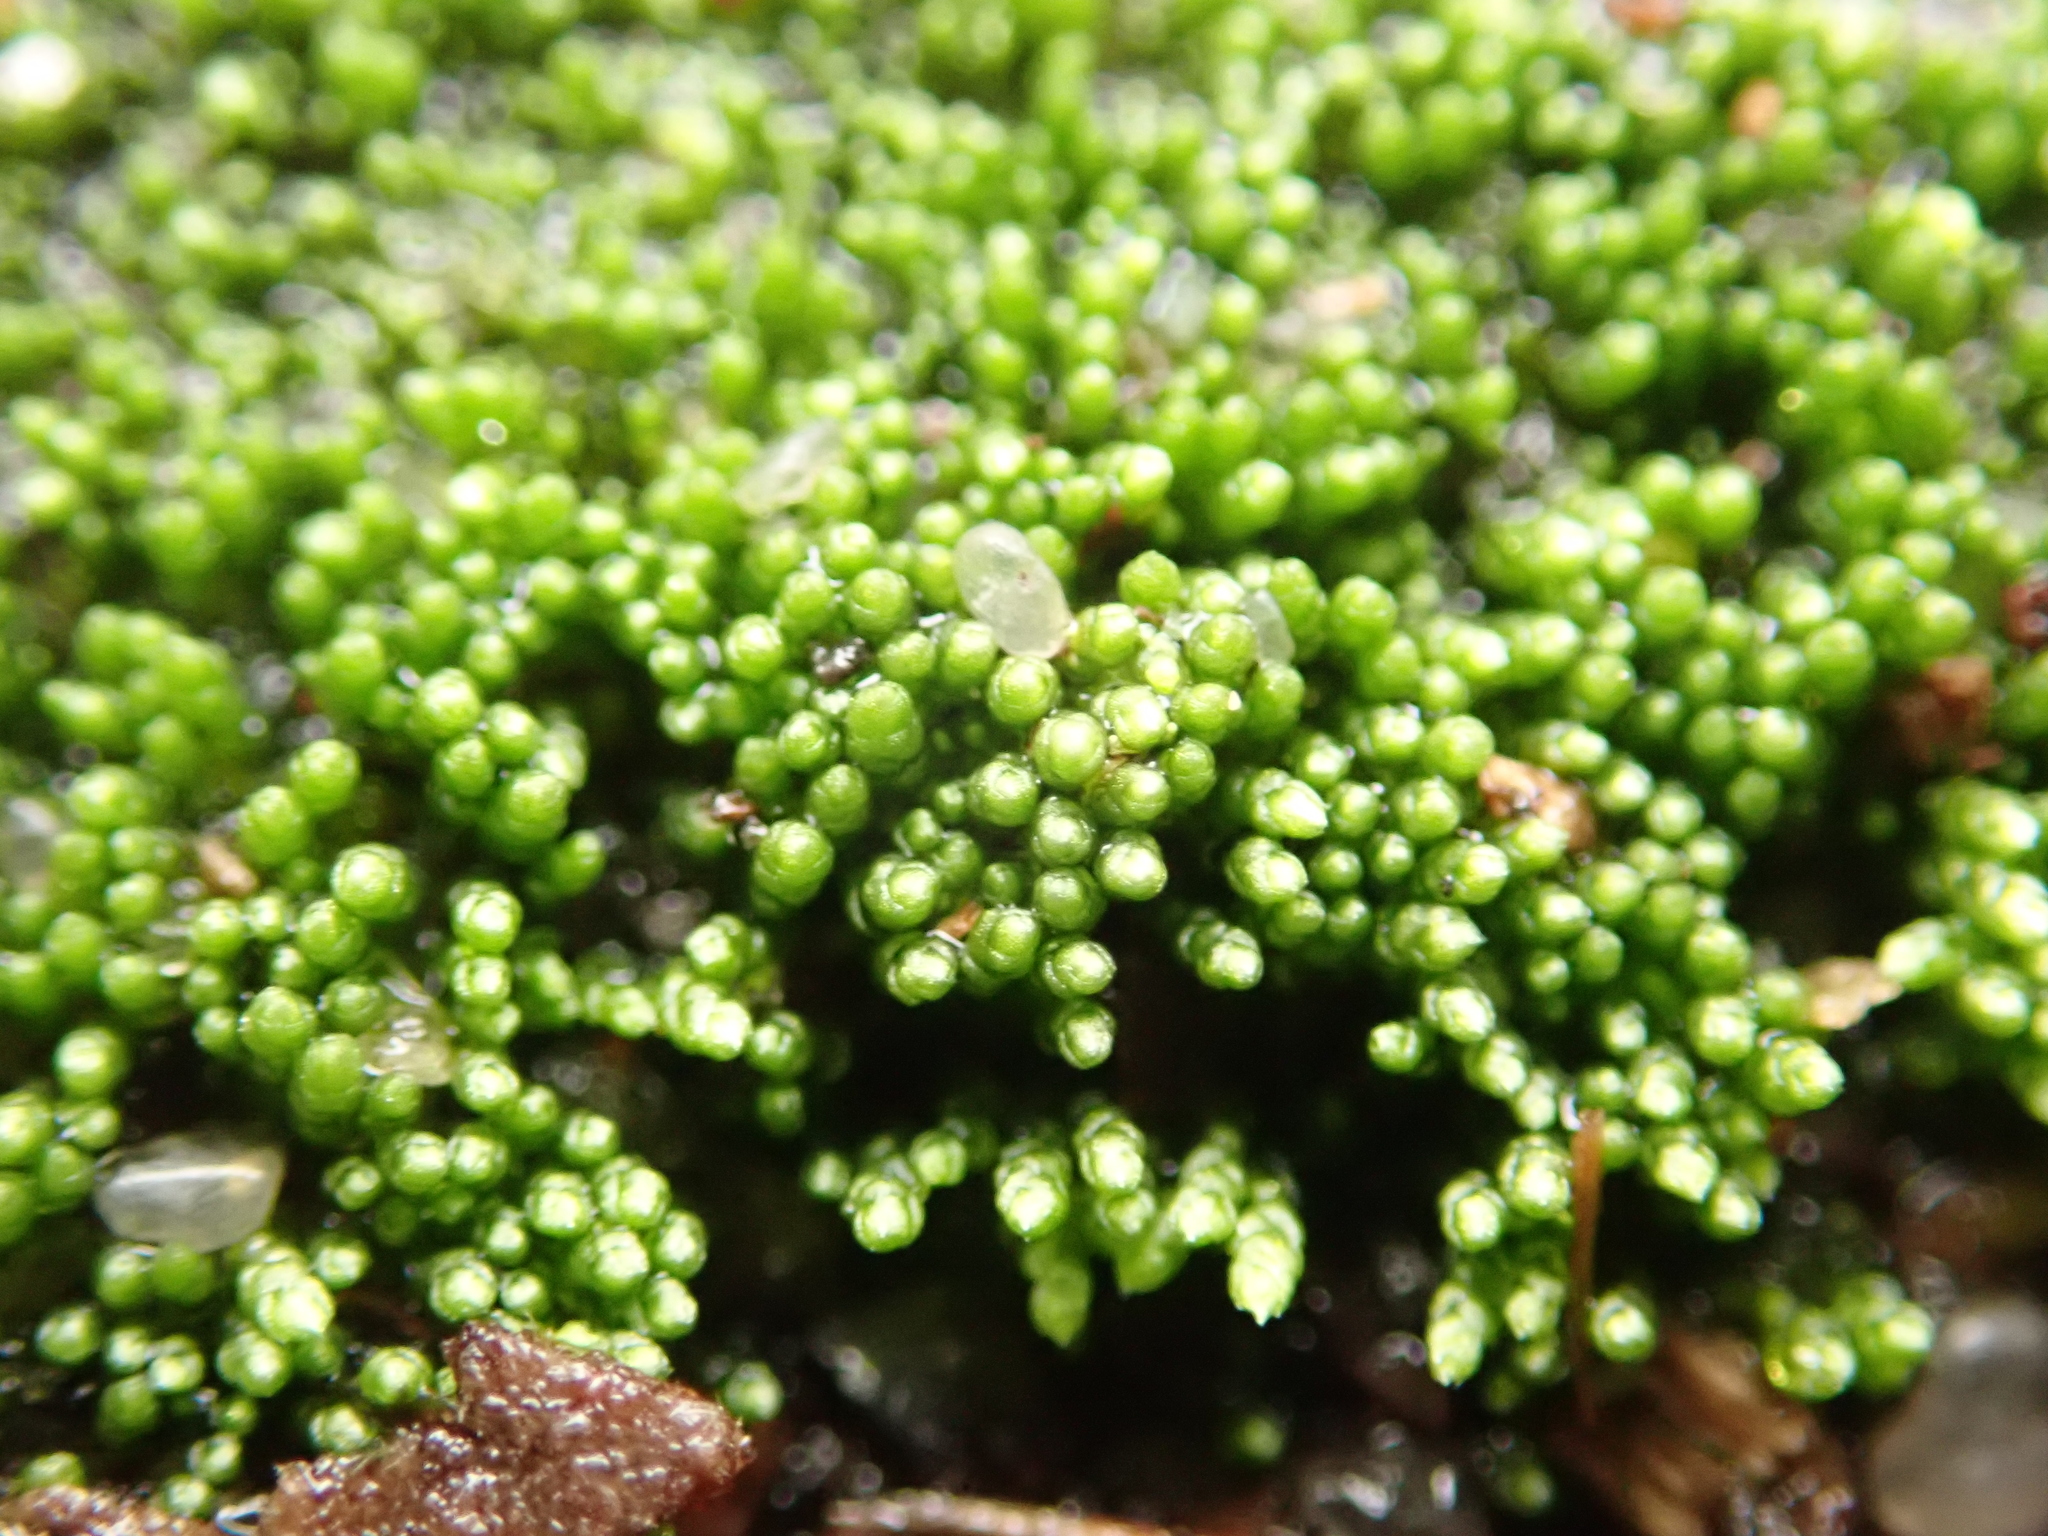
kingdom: Plantae
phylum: Bryophyta
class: Bryopsida
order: Bryales
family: Bryaceae
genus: Bryum
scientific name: Bryum argenteum
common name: Silver-moss
